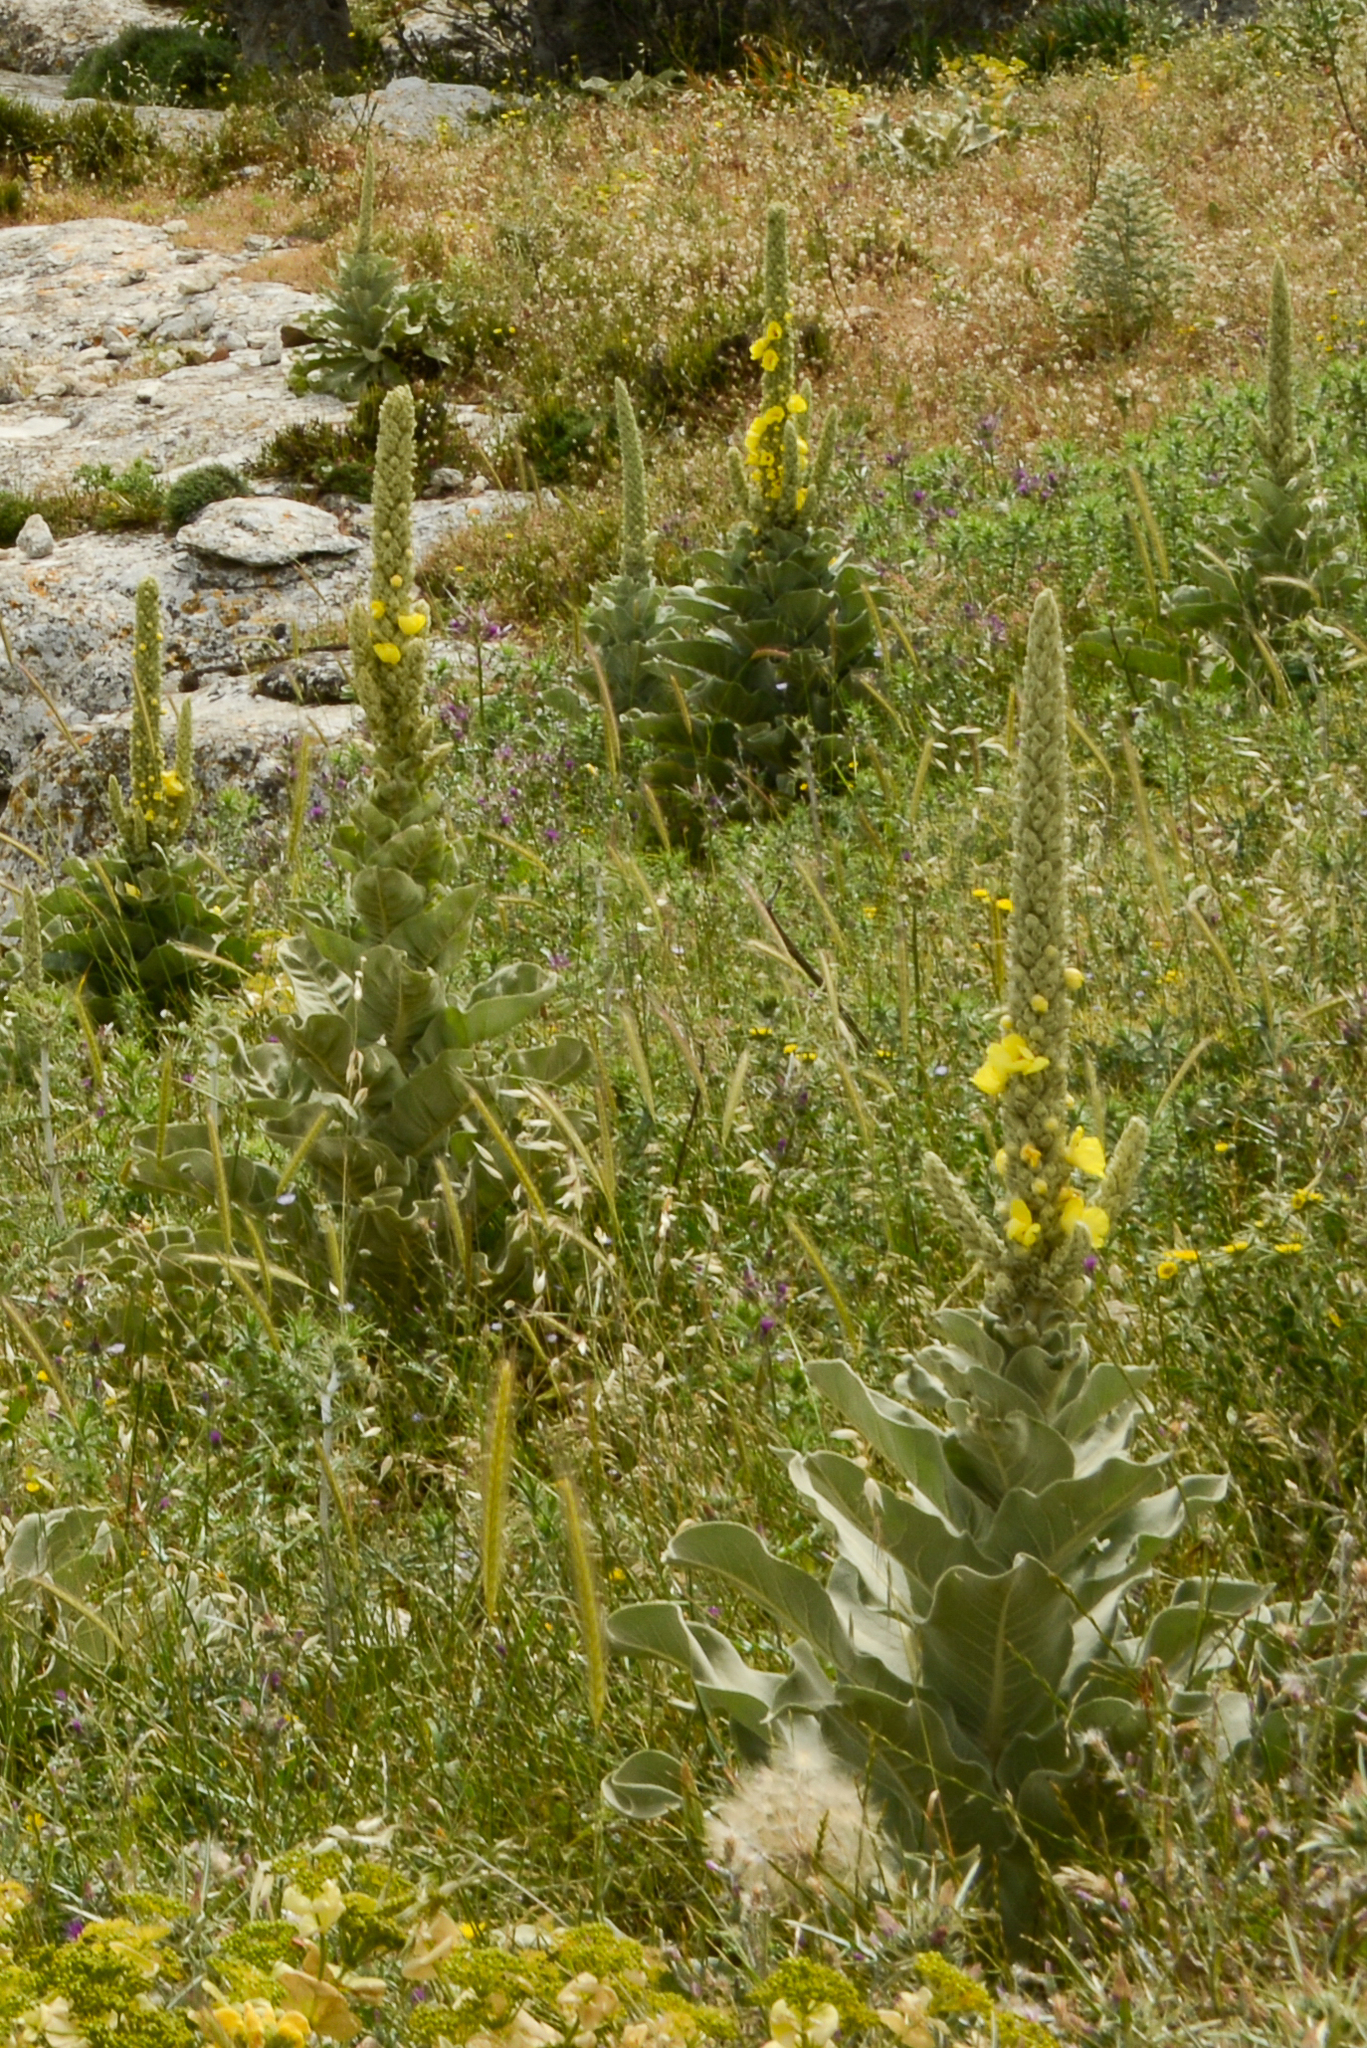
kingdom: Plantae
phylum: Tracheophyta
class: Magnoliopsida
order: Lamiales
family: Scrophulariaceae
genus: Verbascum
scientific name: Verbascum macrurum
